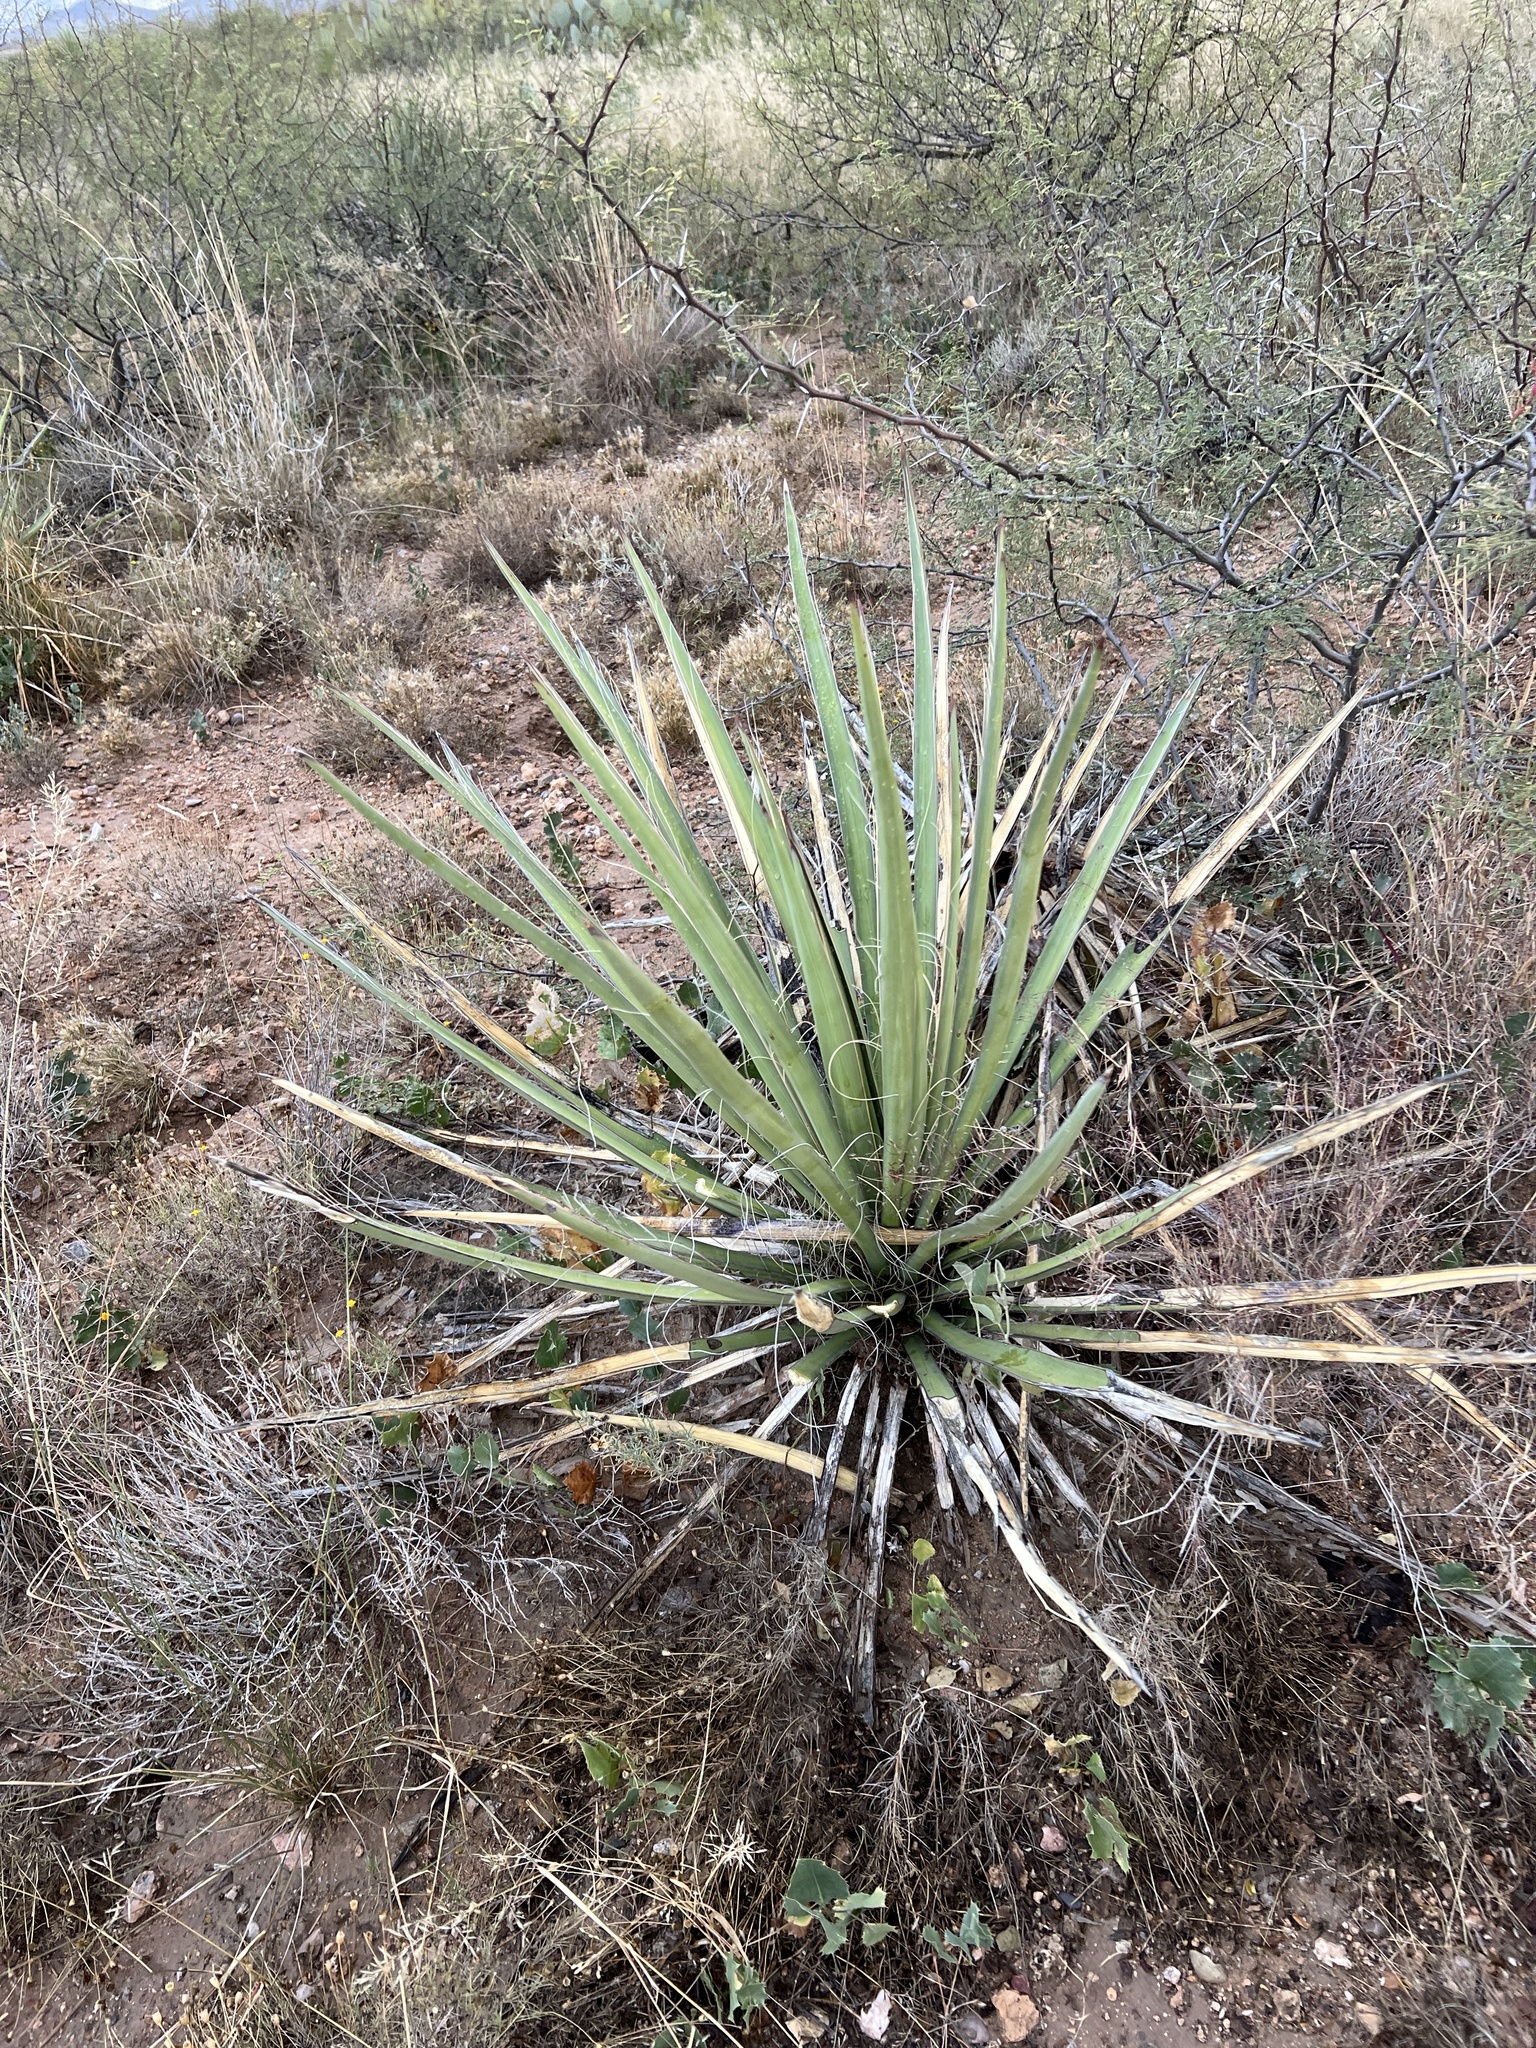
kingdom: Plantae
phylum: Tracheophyta
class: Liliopsida
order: Asparagales
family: Asparagaceae
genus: Yucca
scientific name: Yucca baccata
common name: Banana yucca
